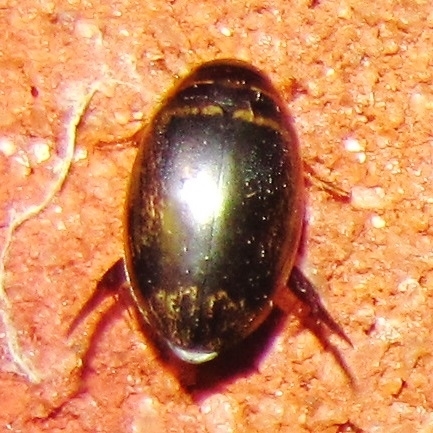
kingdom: Animalia
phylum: Arthropoda
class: Insecta
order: Coleoptera
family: Dytiscidae
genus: Thermonectus
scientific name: Thermonectus basillaris
